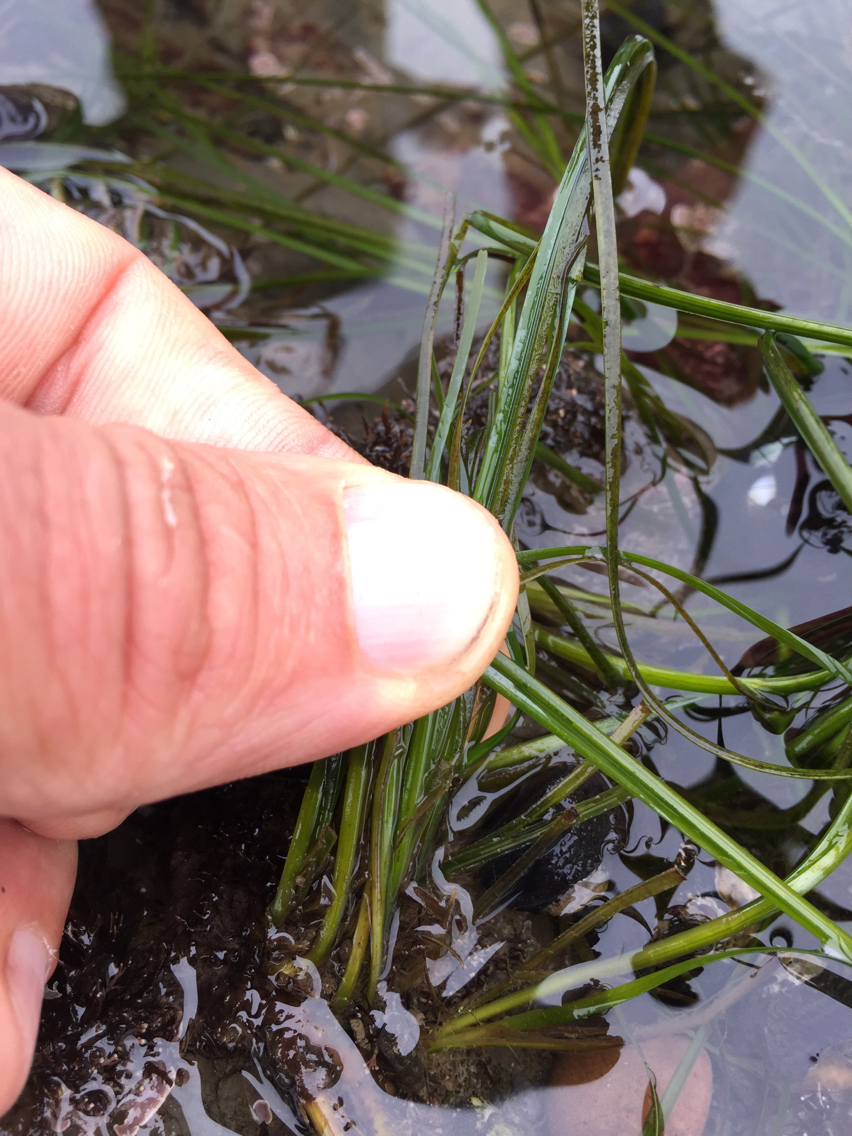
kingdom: Plantae
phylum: Tracheophyta
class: Liliopsida
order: Alismatales
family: Zosteraceae
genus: Phyllospadix
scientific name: Phyllospadix scouleri
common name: Species code: ps
